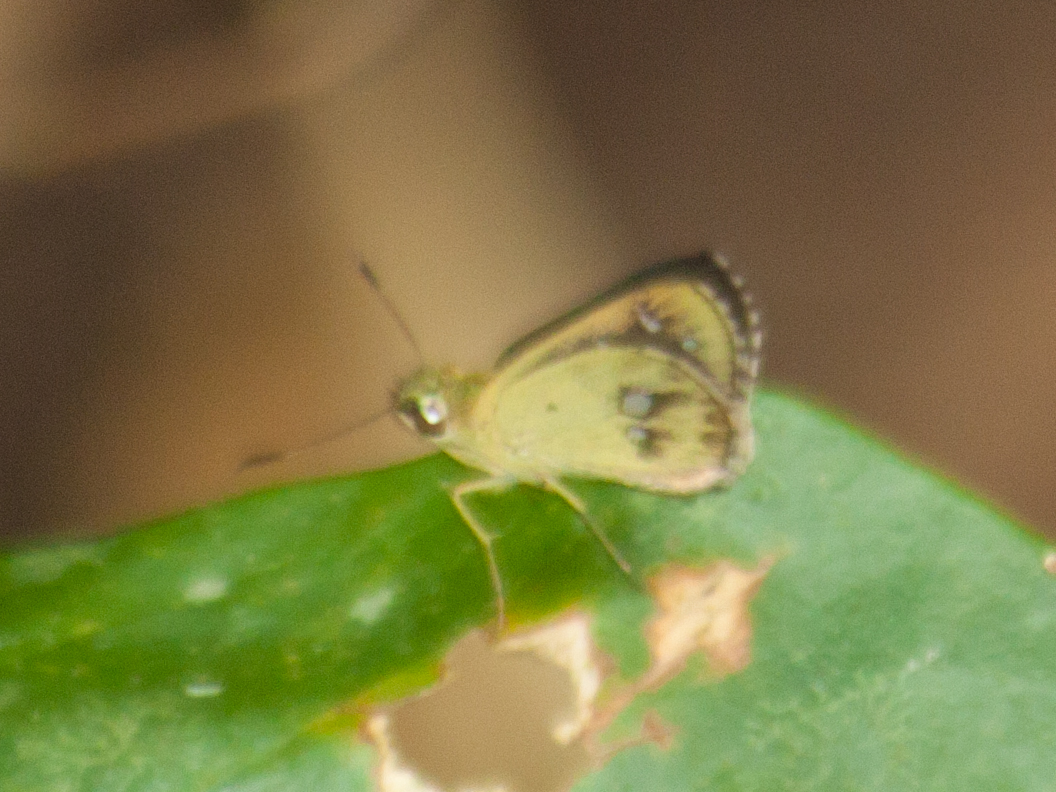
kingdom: Animalia
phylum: Arthropoda
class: Insecta
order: Lepidoptera
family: Hesperiidae
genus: Scobura
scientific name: Scobura isota
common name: Swinhoe's forest bob
